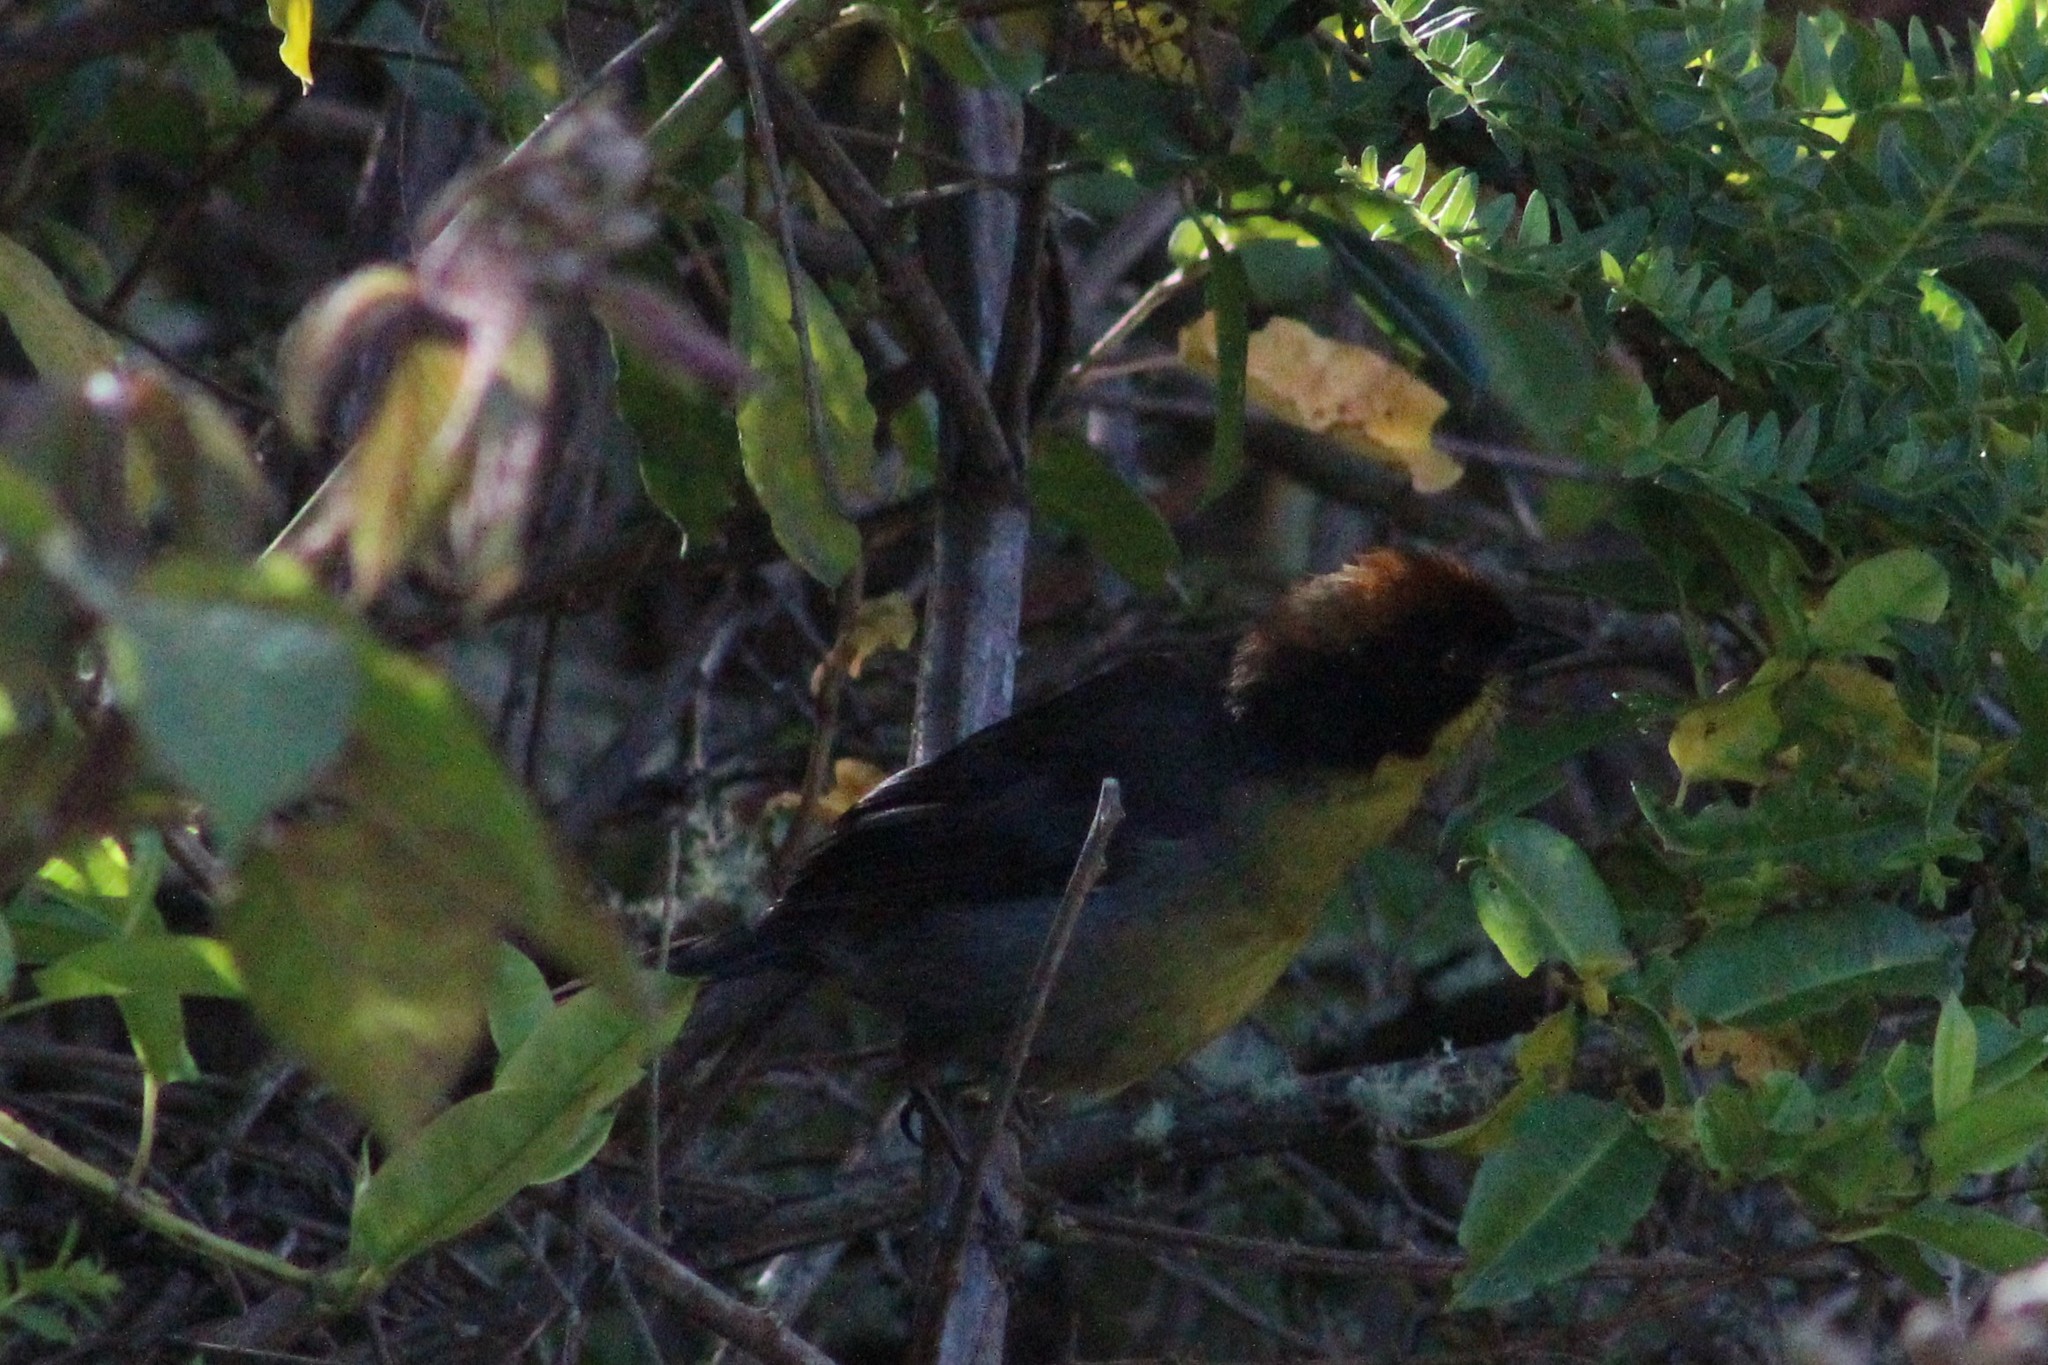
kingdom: Animalia
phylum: Chordata
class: Aves
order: Passeriformes
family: Passerellidae
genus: Atlapetes
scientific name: Atlapetes latinuchus
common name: Yellow-breasted brushfinch
